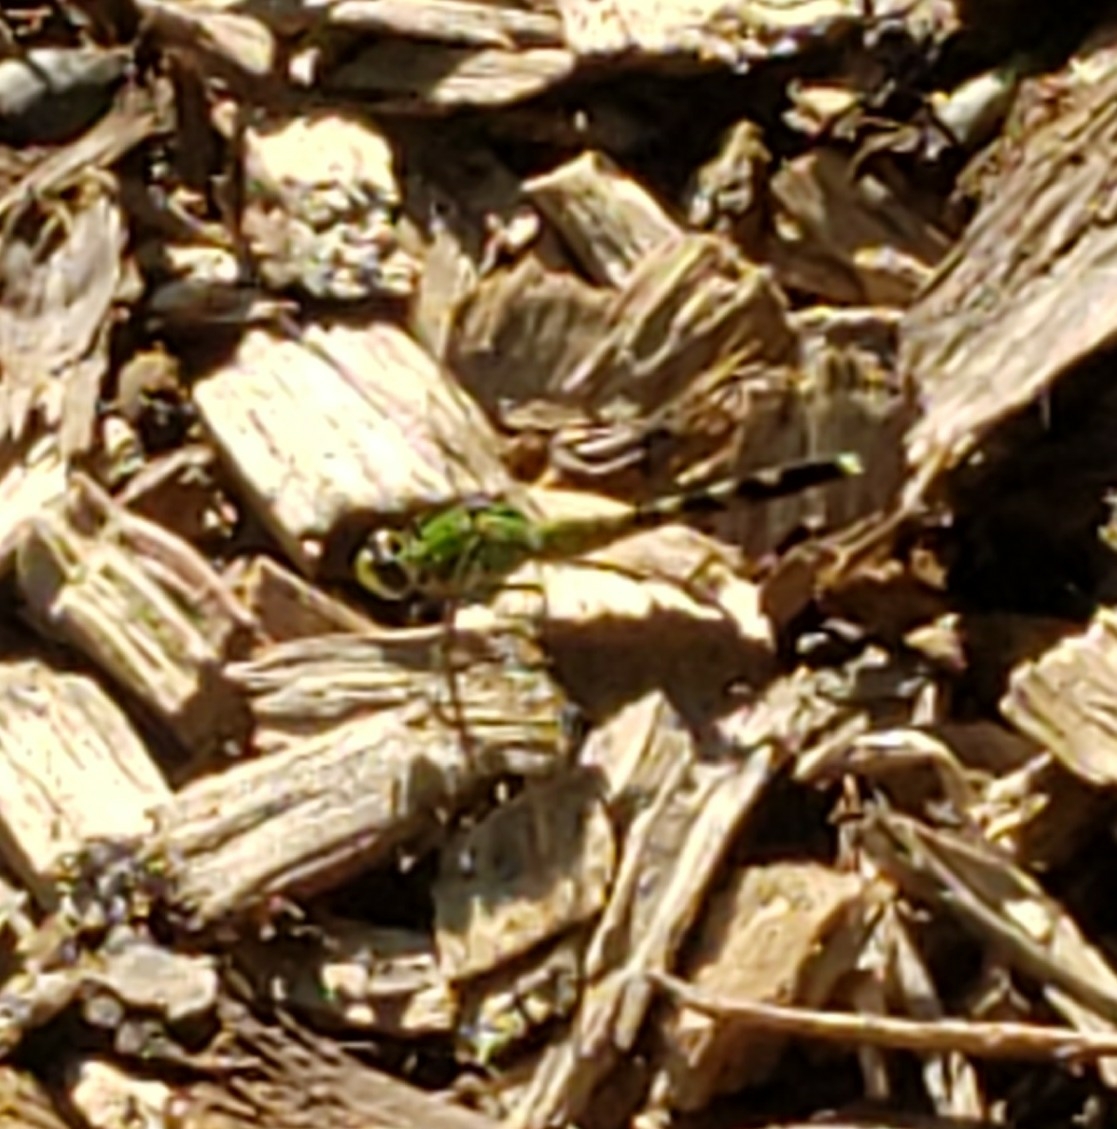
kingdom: Animalia
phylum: Arthropoda
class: Insecta
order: Odonata
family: Libellulidae
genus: Erythemis
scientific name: Erythemis simplicicollis
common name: Eastern pondhawk
